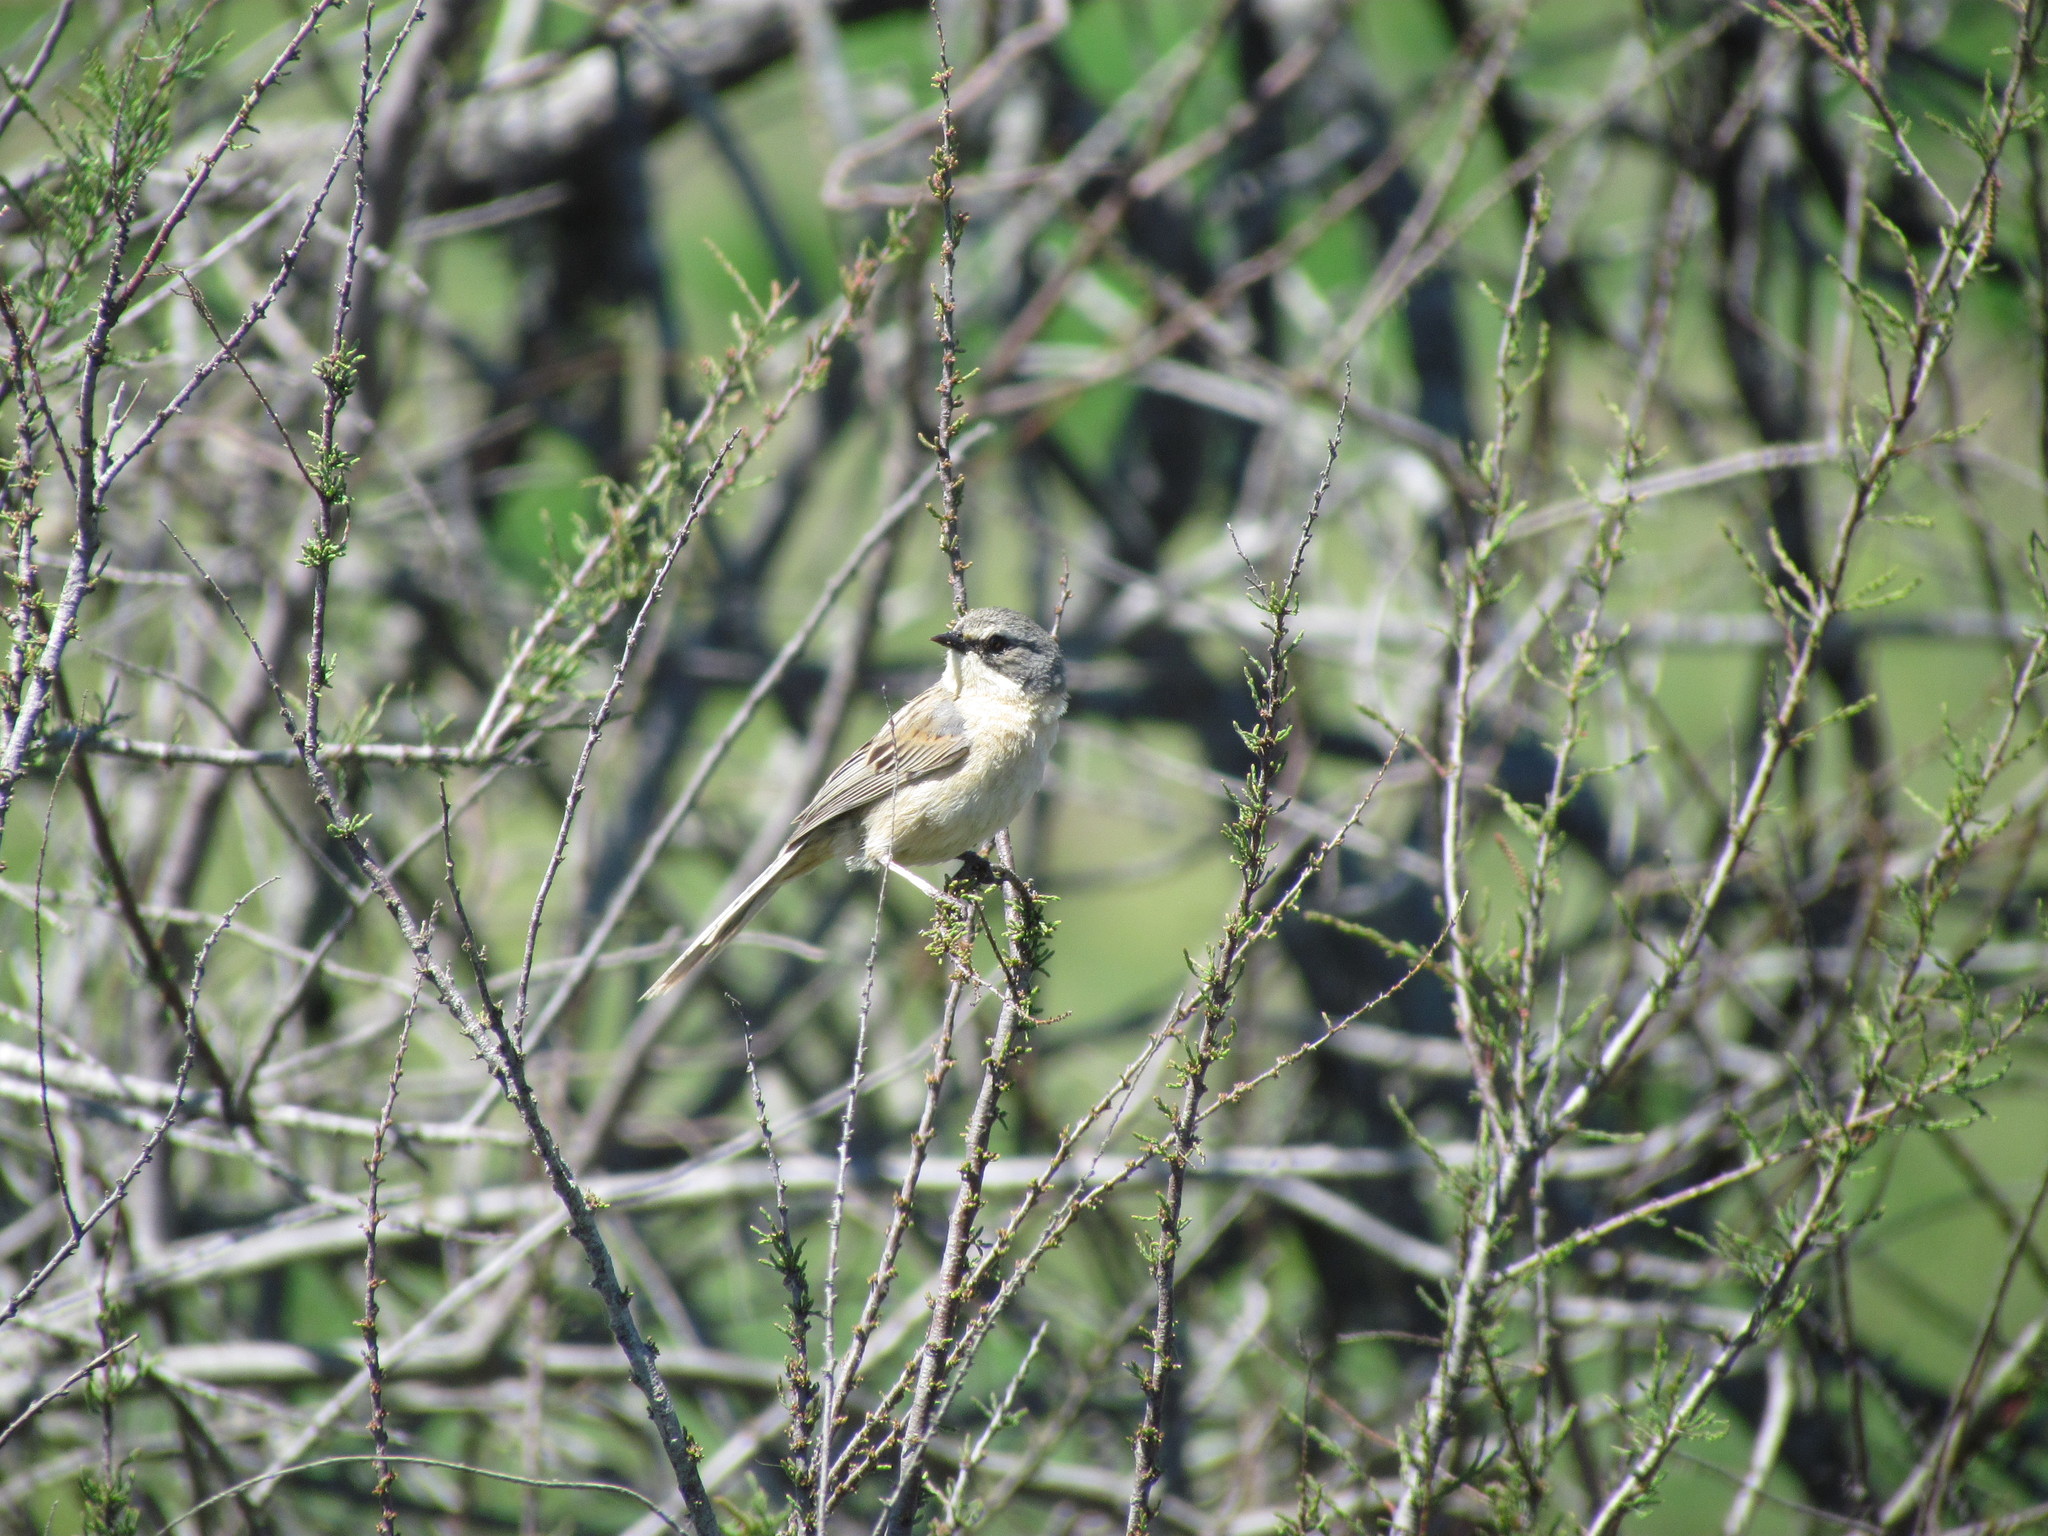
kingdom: Animalia
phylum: Chordata
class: Aves
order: Passeriformes
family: Thraupidae
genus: Donacospiza
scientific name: Donacospiza albifrons
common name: Long-tailed reed finch
